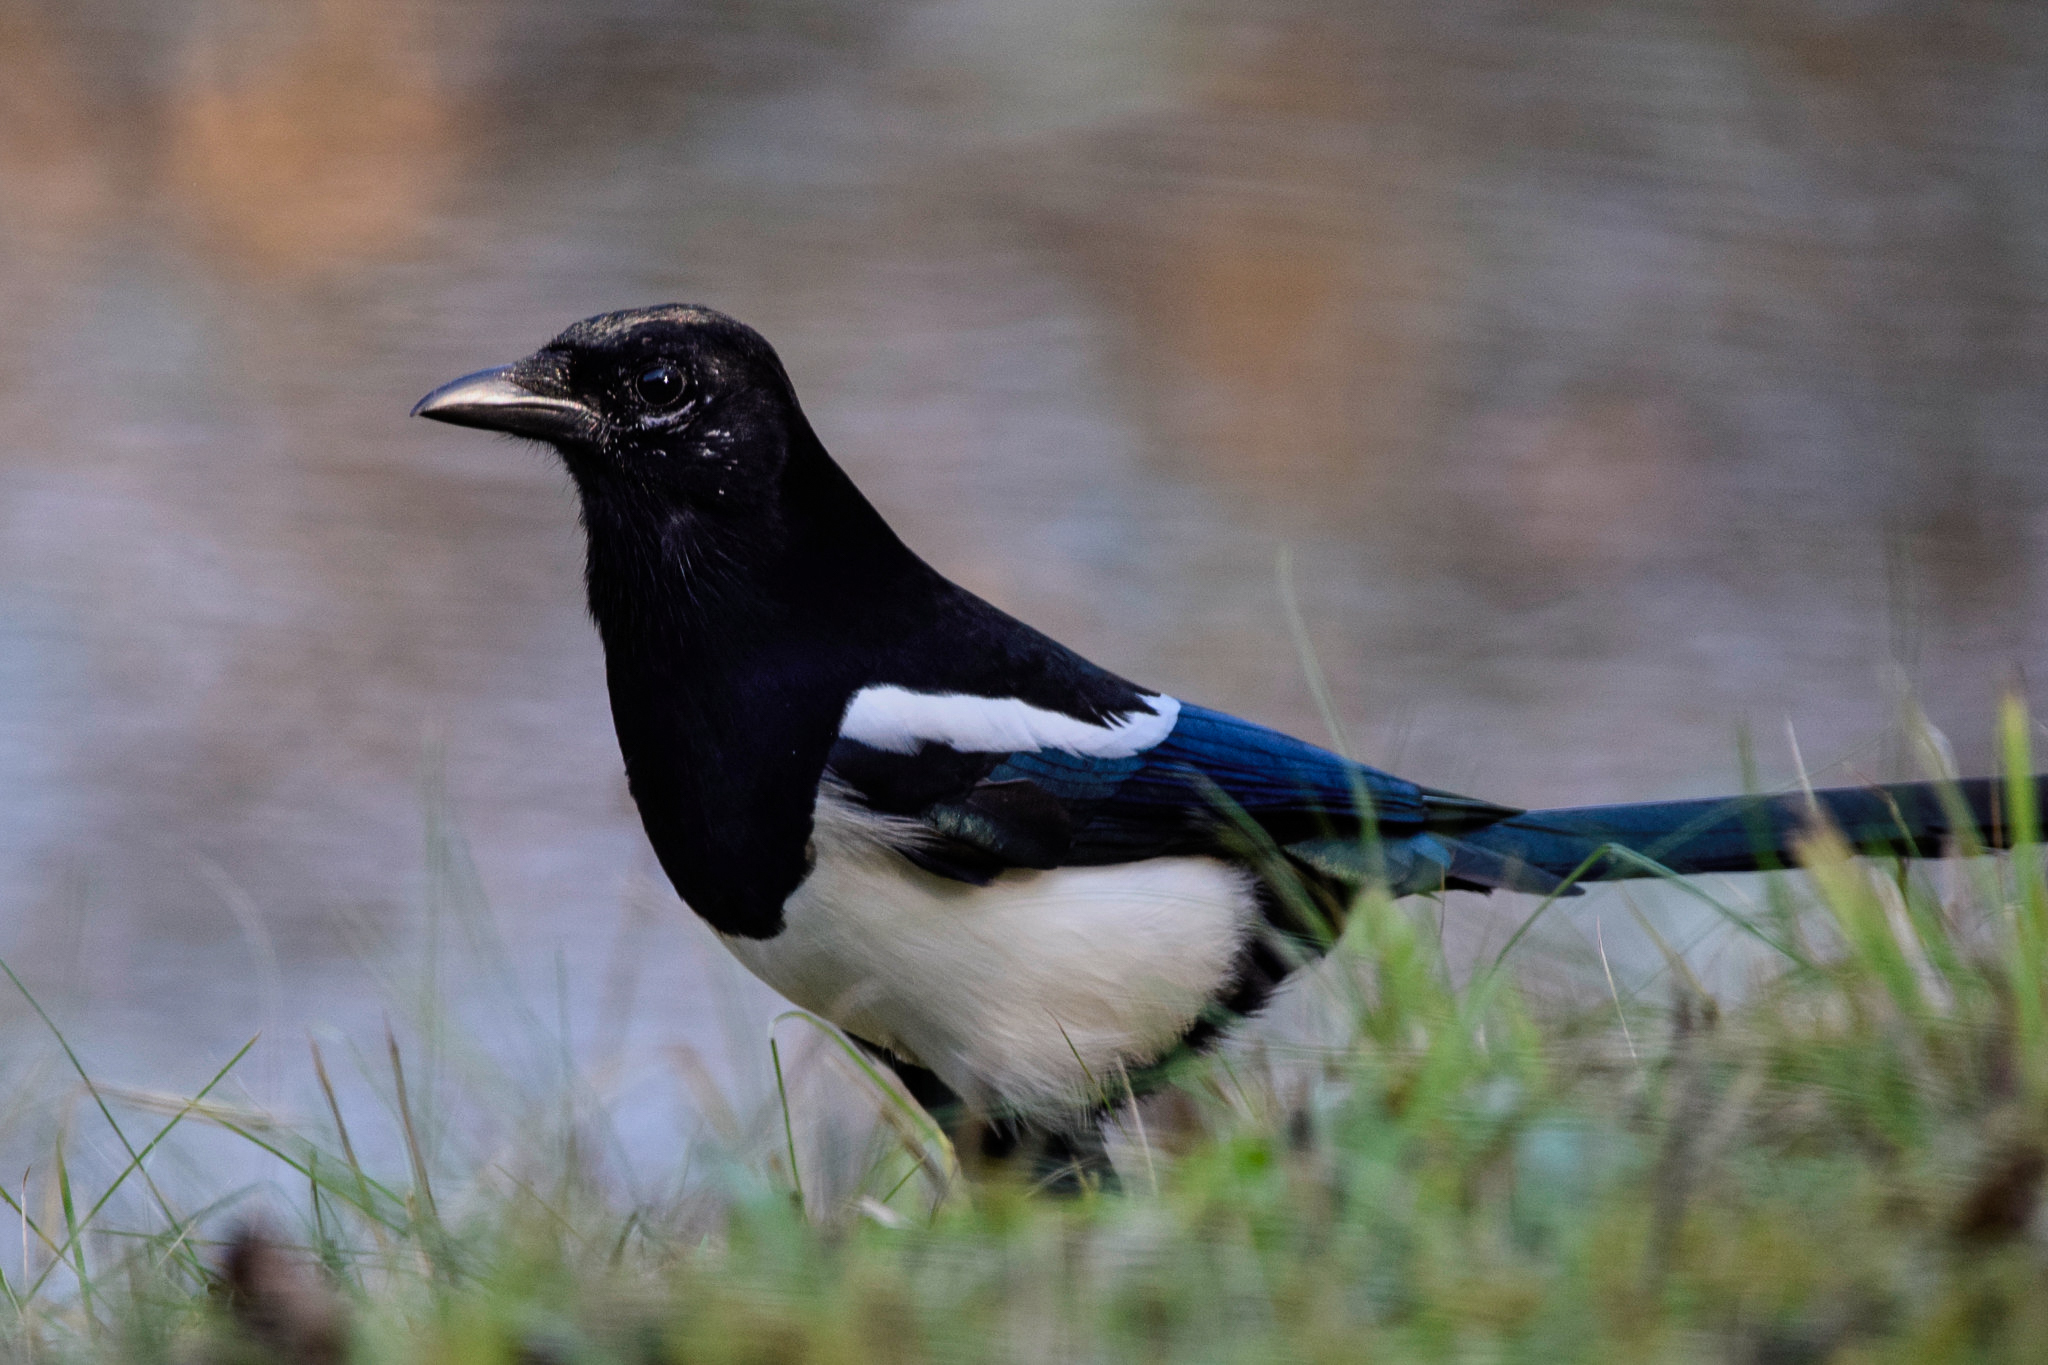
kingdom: Animalia
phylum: Chordata
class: Aves
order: Passeriformes
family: Corvidae
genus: Pica
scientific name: Pica pica
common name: Eurasian magpie
